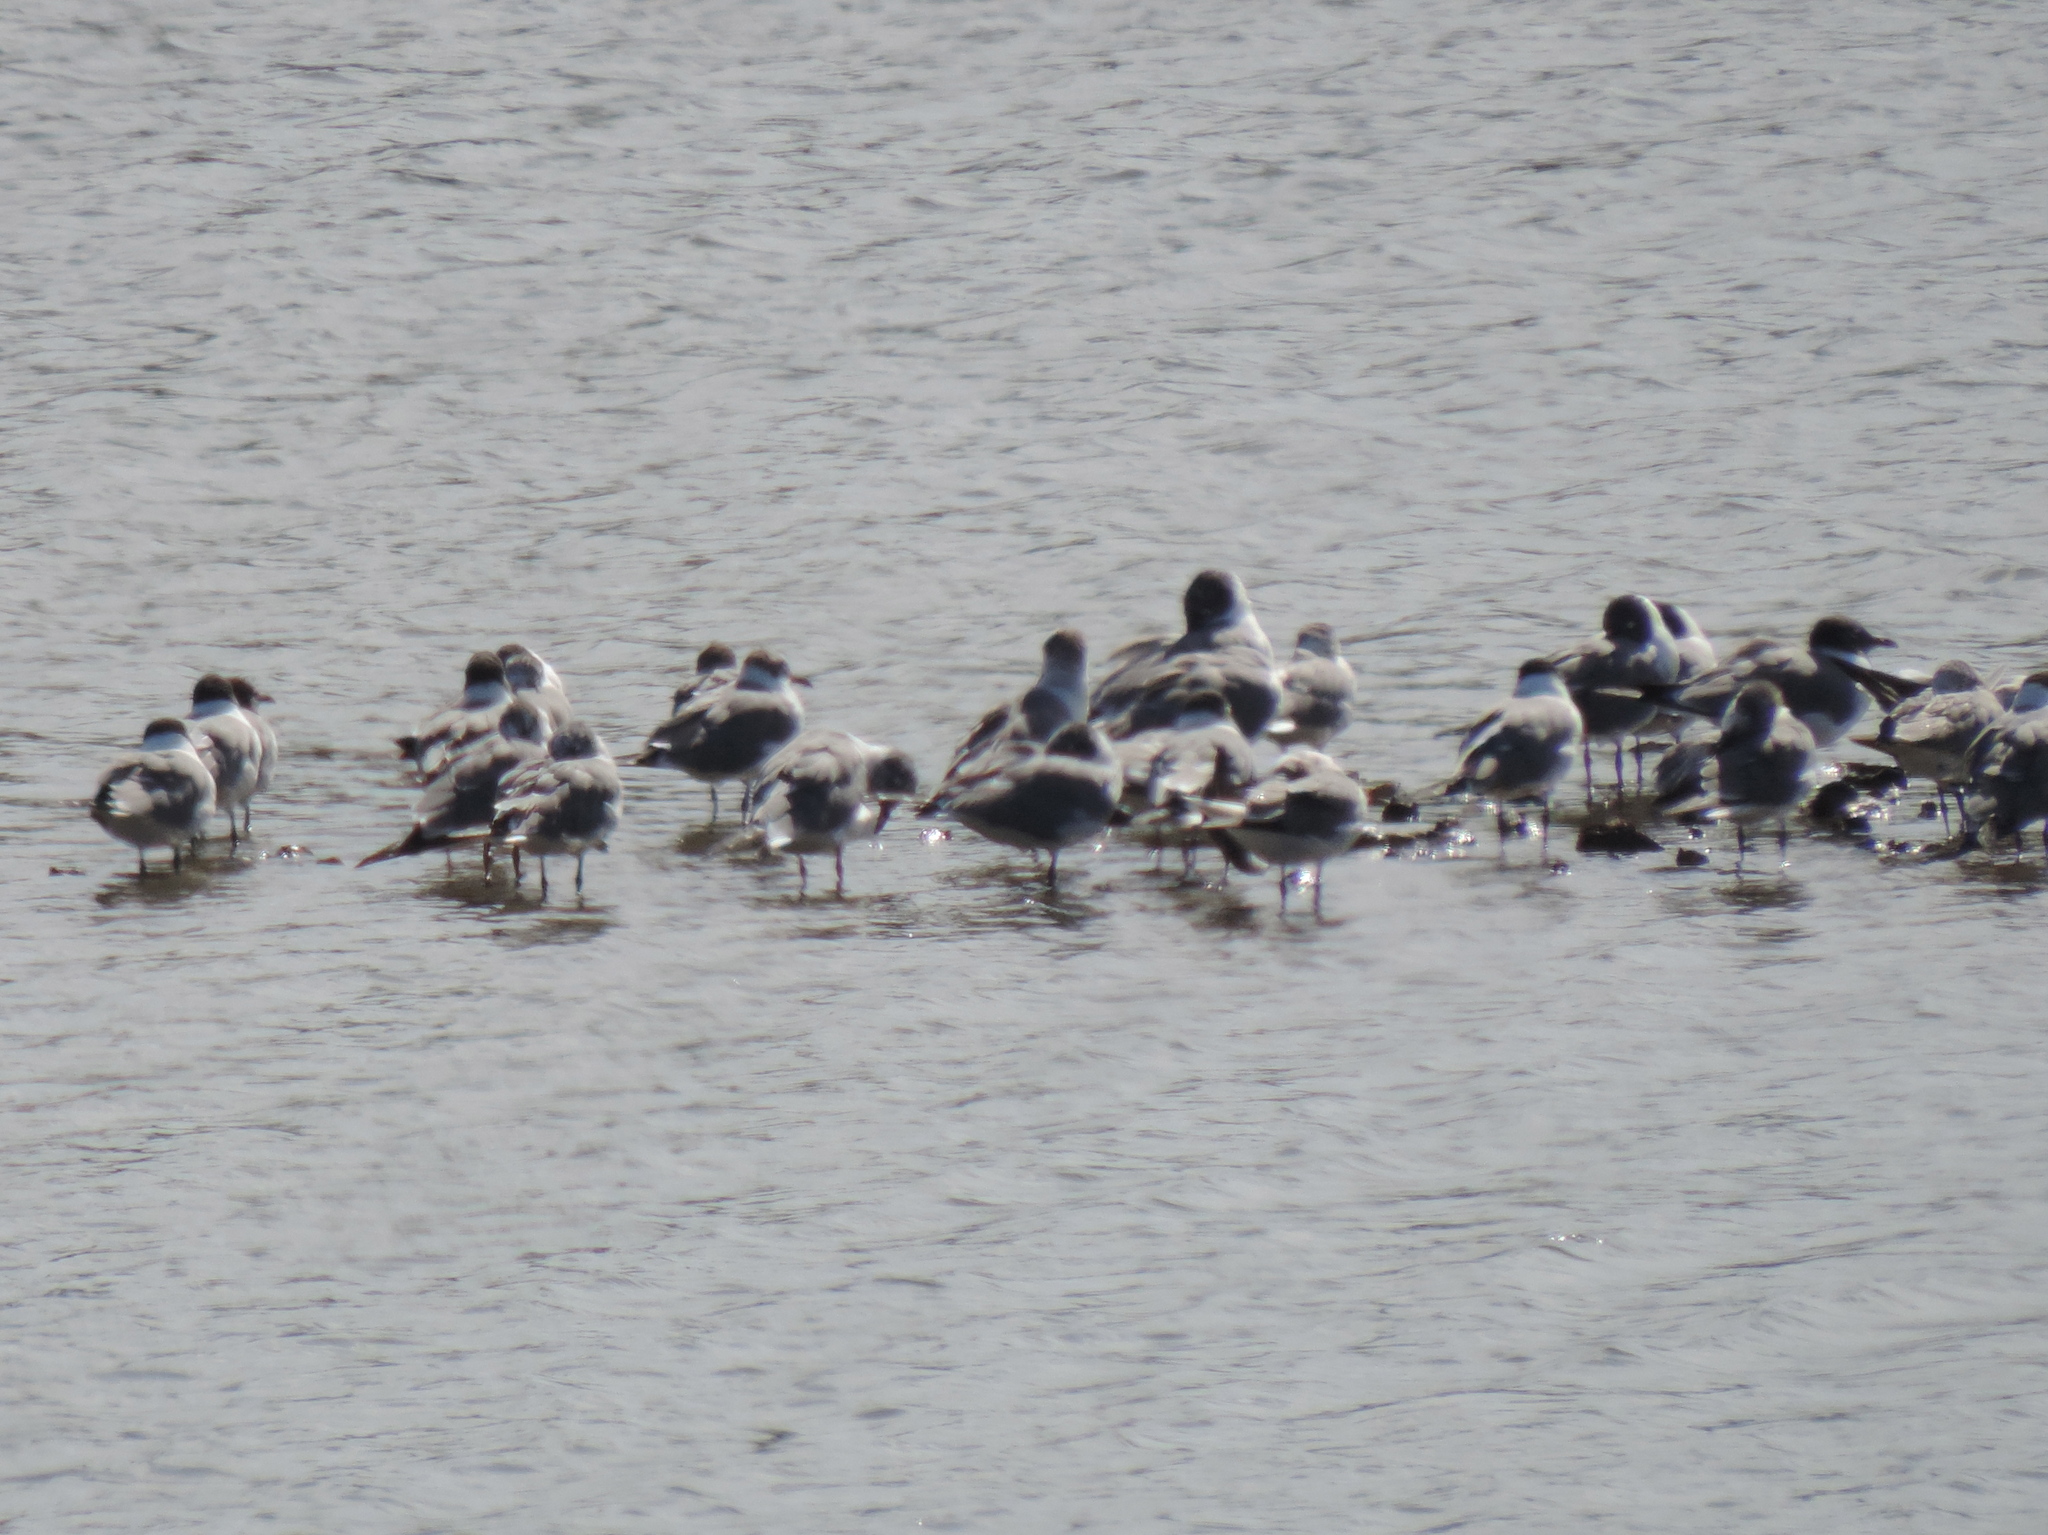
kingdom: Animalia
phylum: Chordata
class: Aves
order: Charadriiformes
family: Laridae
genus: Leucophaeus
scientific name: Leucophaeus pipixcan
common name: Franklin's gull
